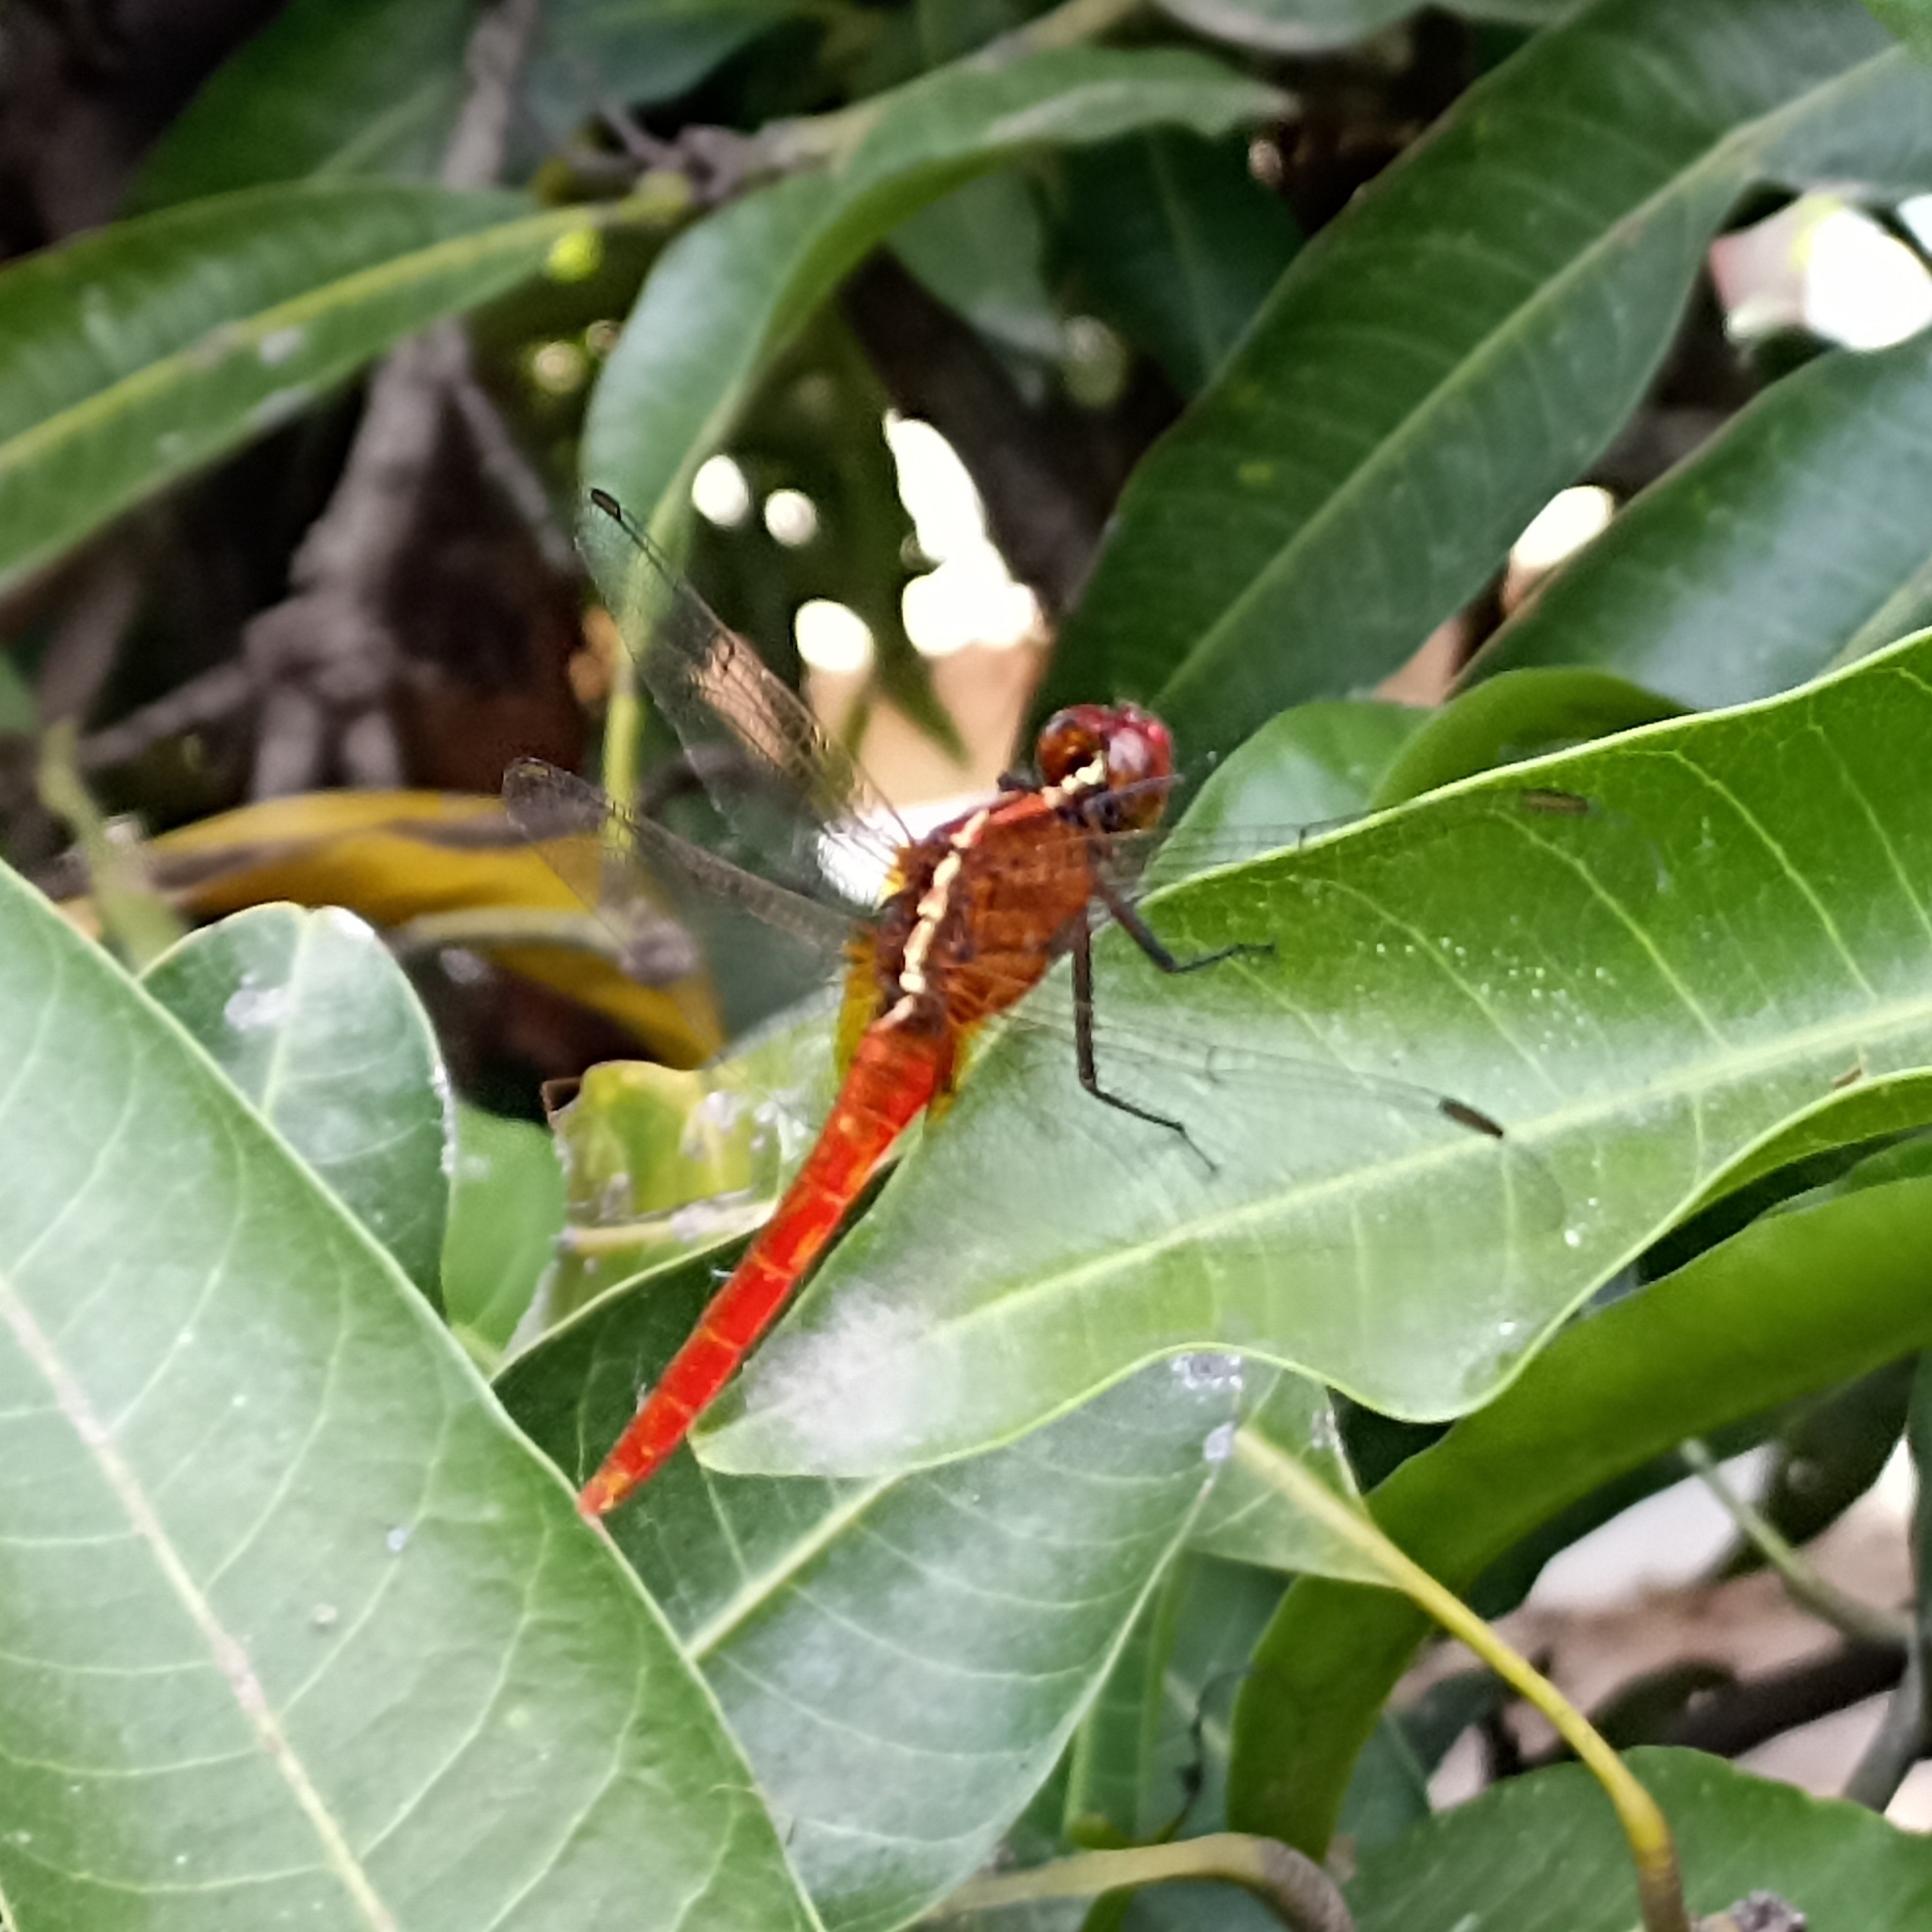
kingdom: Animalia
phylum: Arthropoda
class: Insecta
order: Odonata
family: Libellulidae
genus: Rhodothemis
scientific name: Rhodothemis rufa
